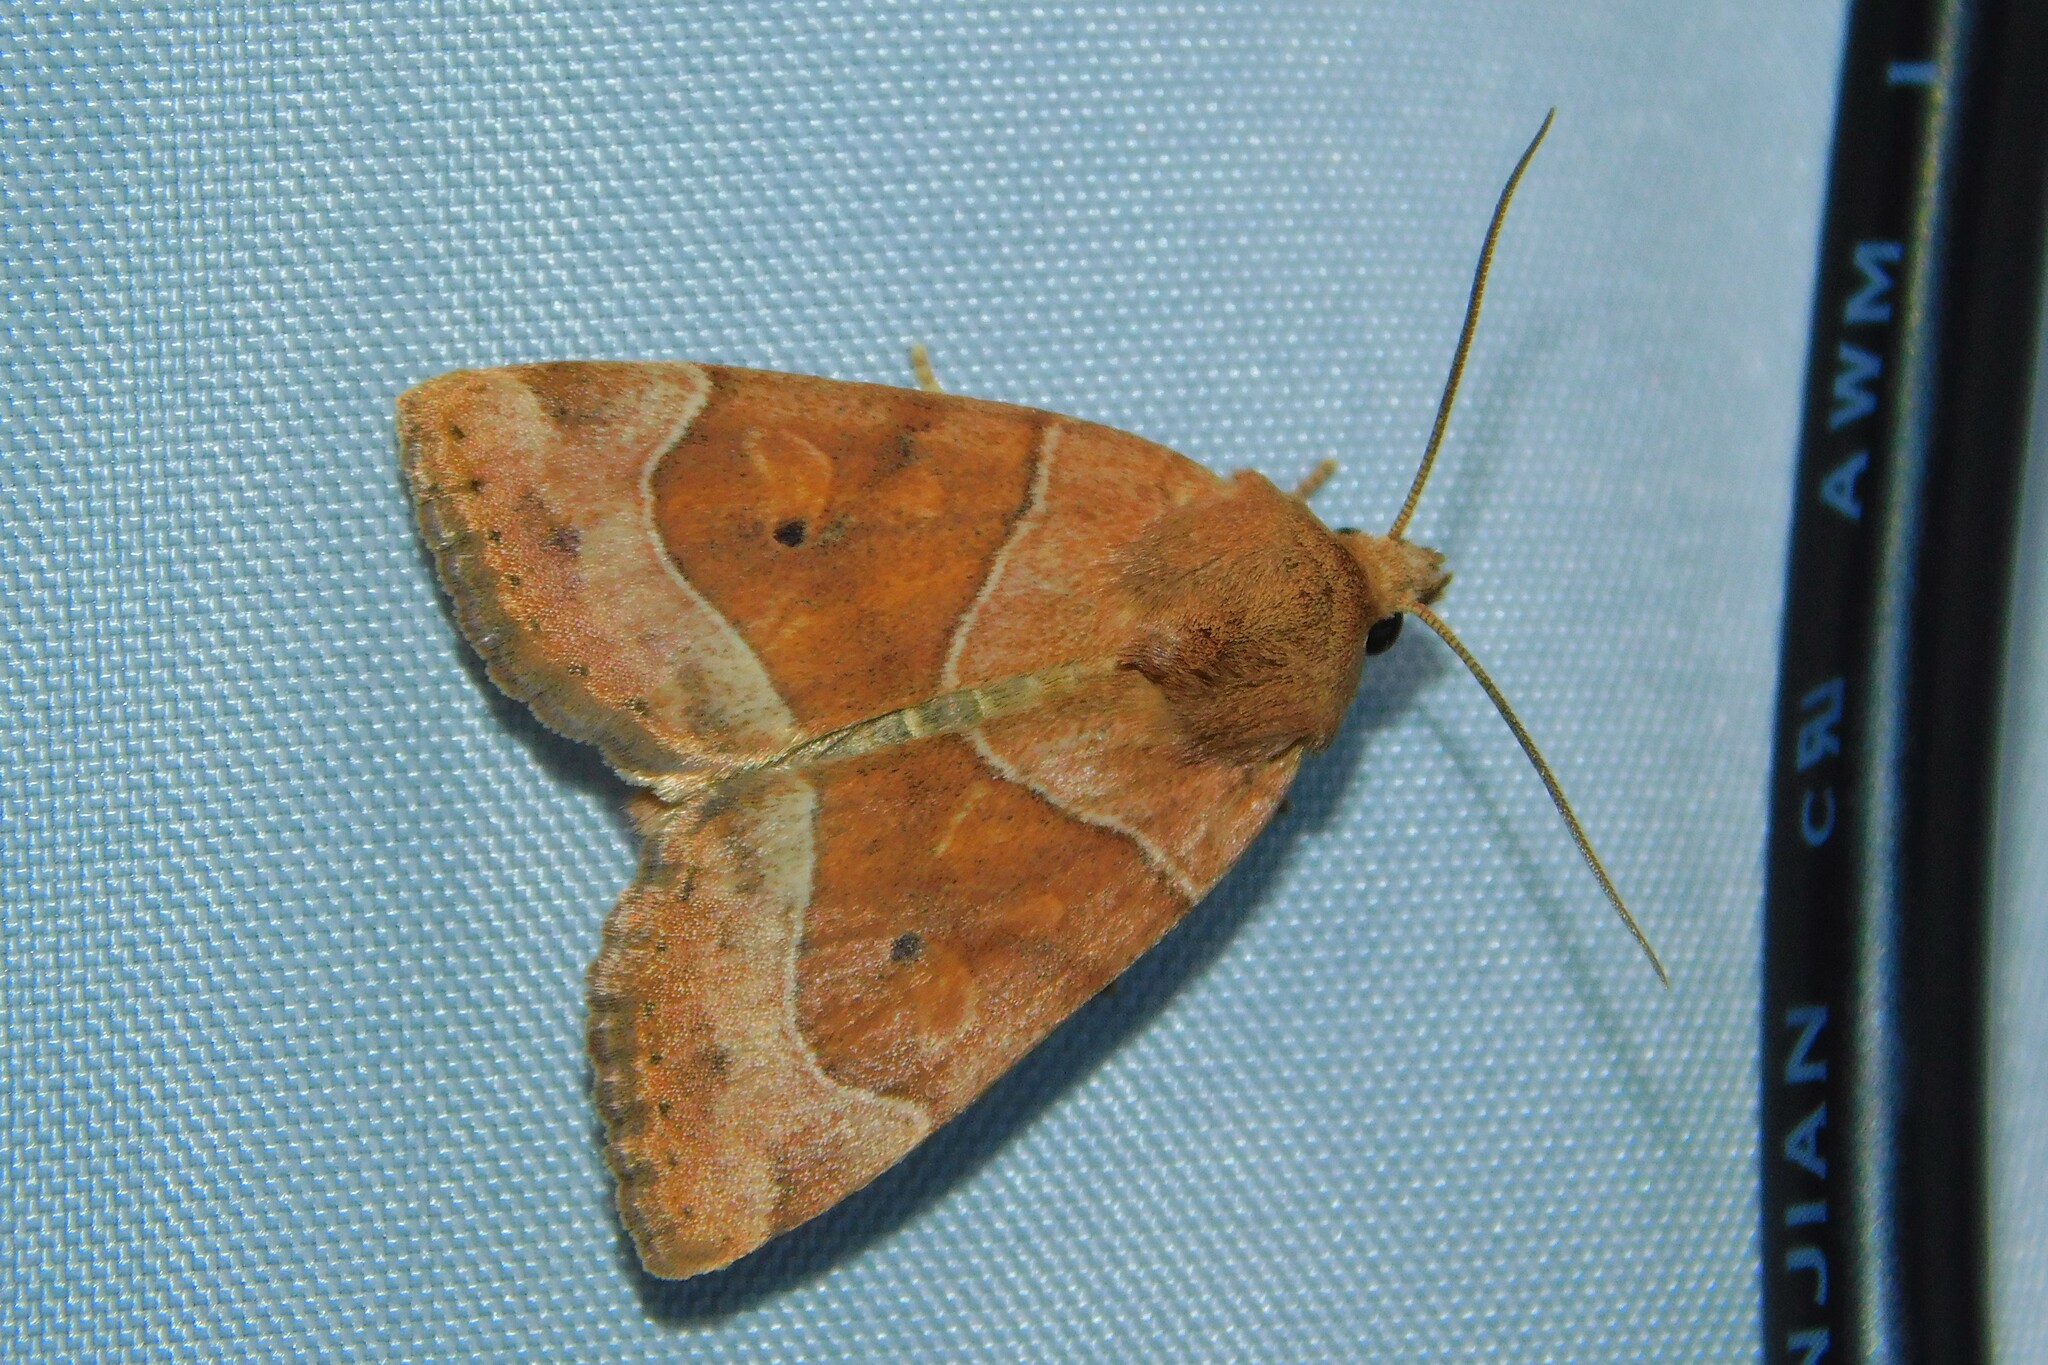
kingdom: Animalia
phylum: Arthropoda
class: Insecta
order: Lepidoptera
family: Noctuidae
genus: Cosmia
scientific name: Cosmia trapezina
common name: Dun-bar
